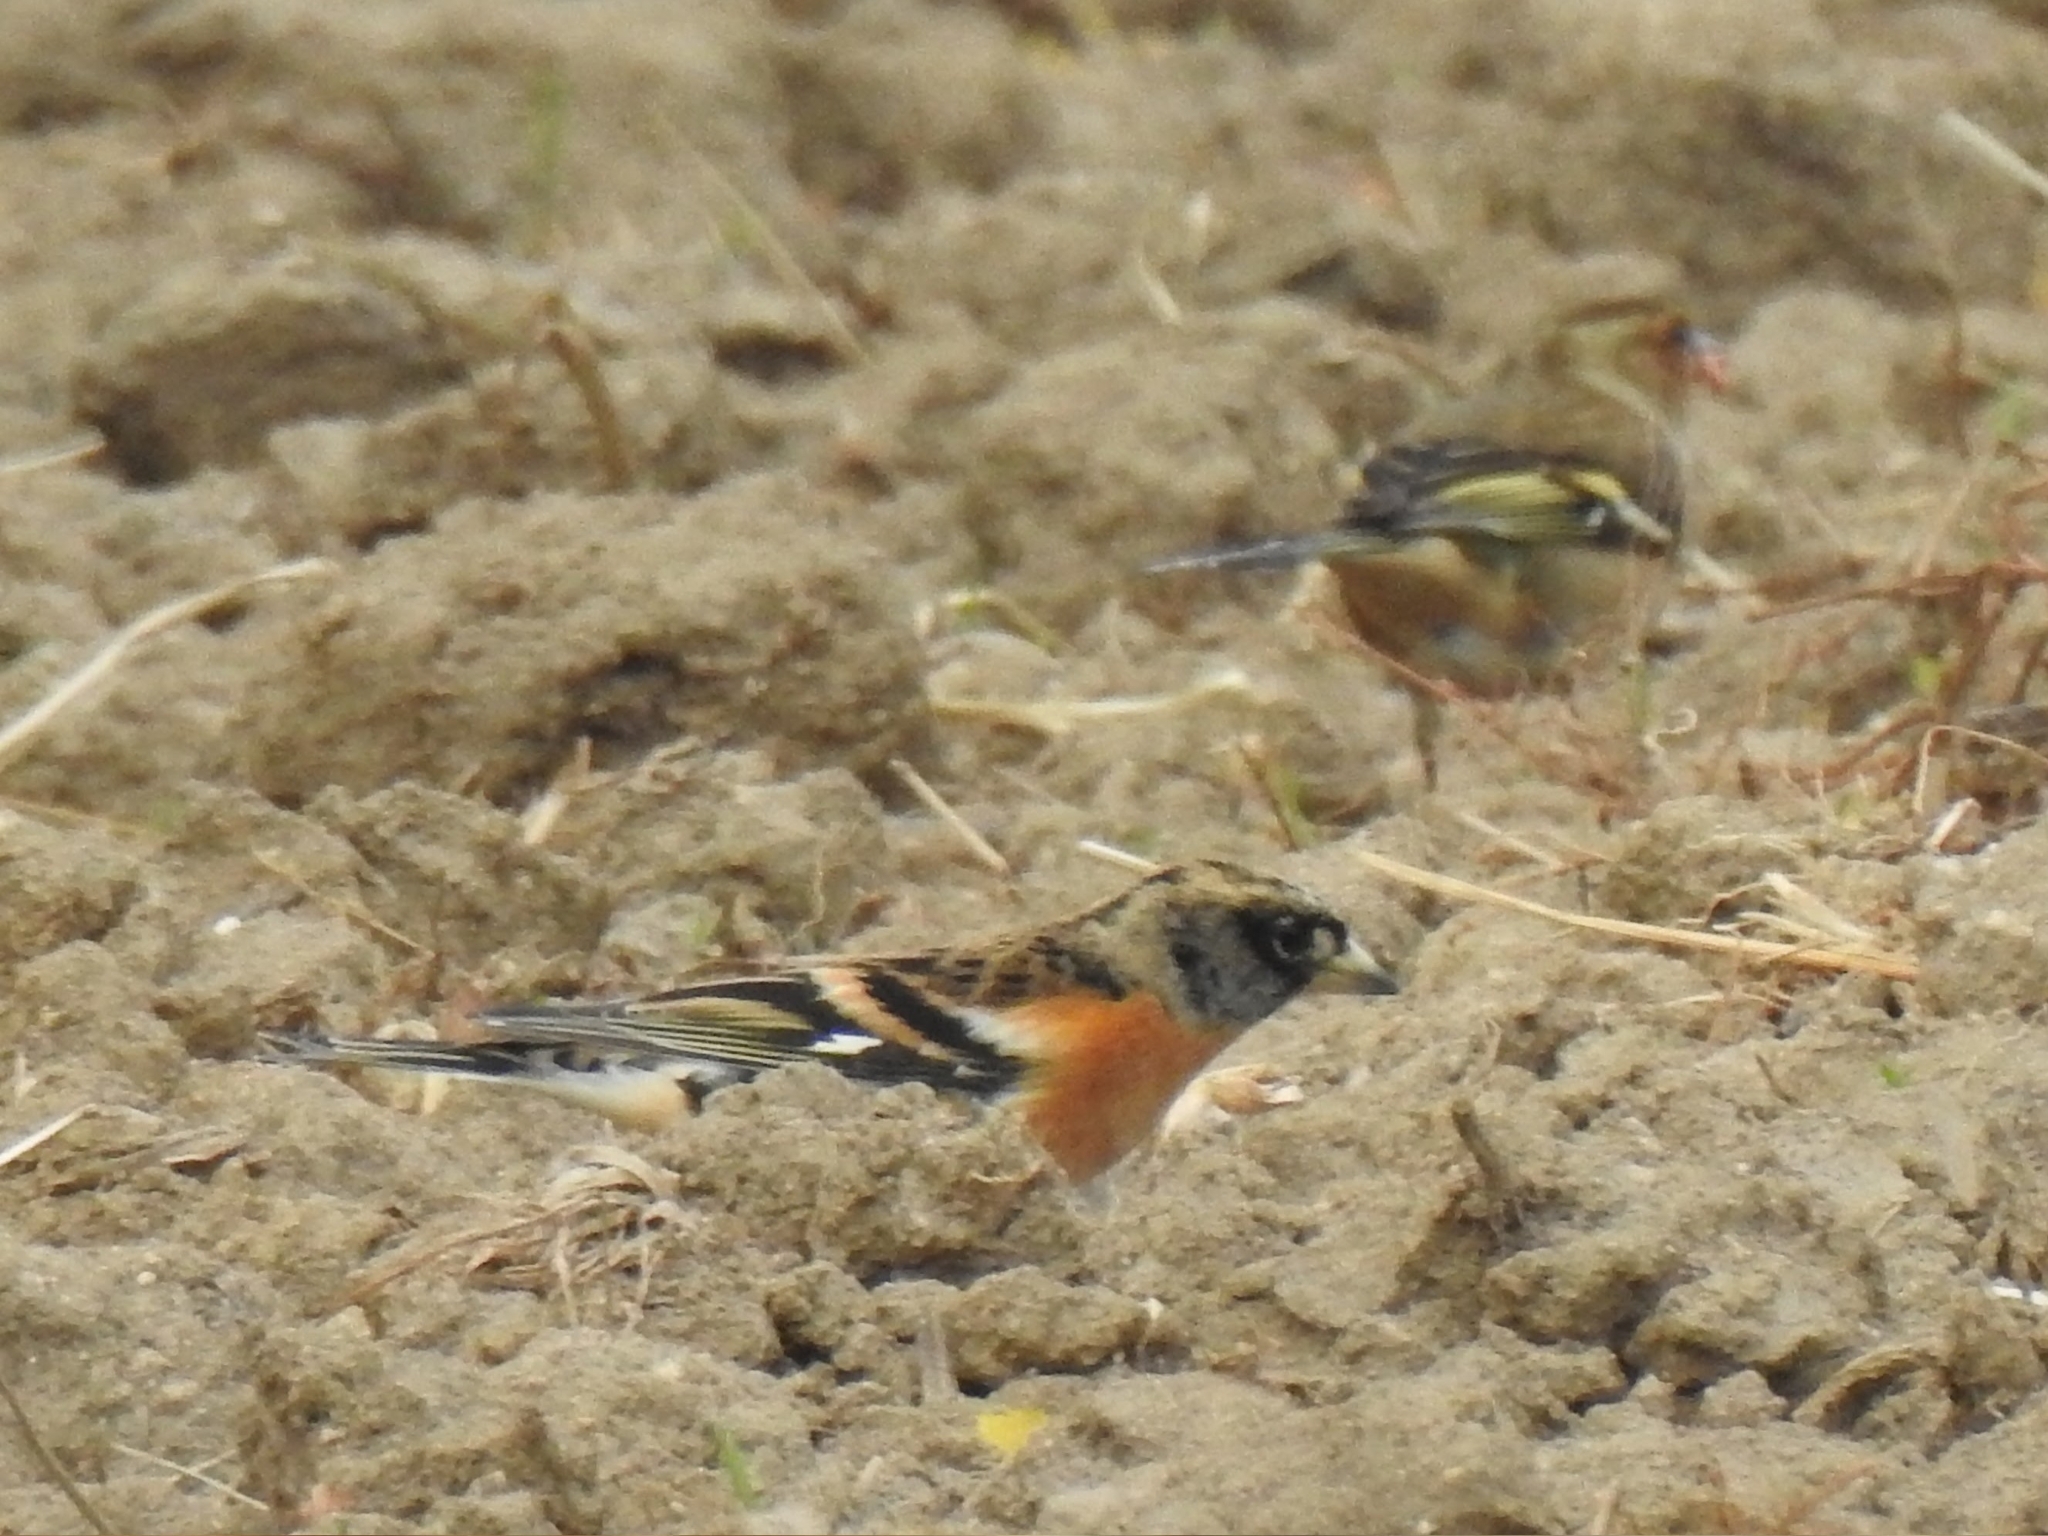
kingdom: Animalia
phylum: Chordata
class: Aves
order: Passeriformes
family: Fringillidae
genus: Fringilla
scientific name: Fringilla montifringilla
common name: Brambling
